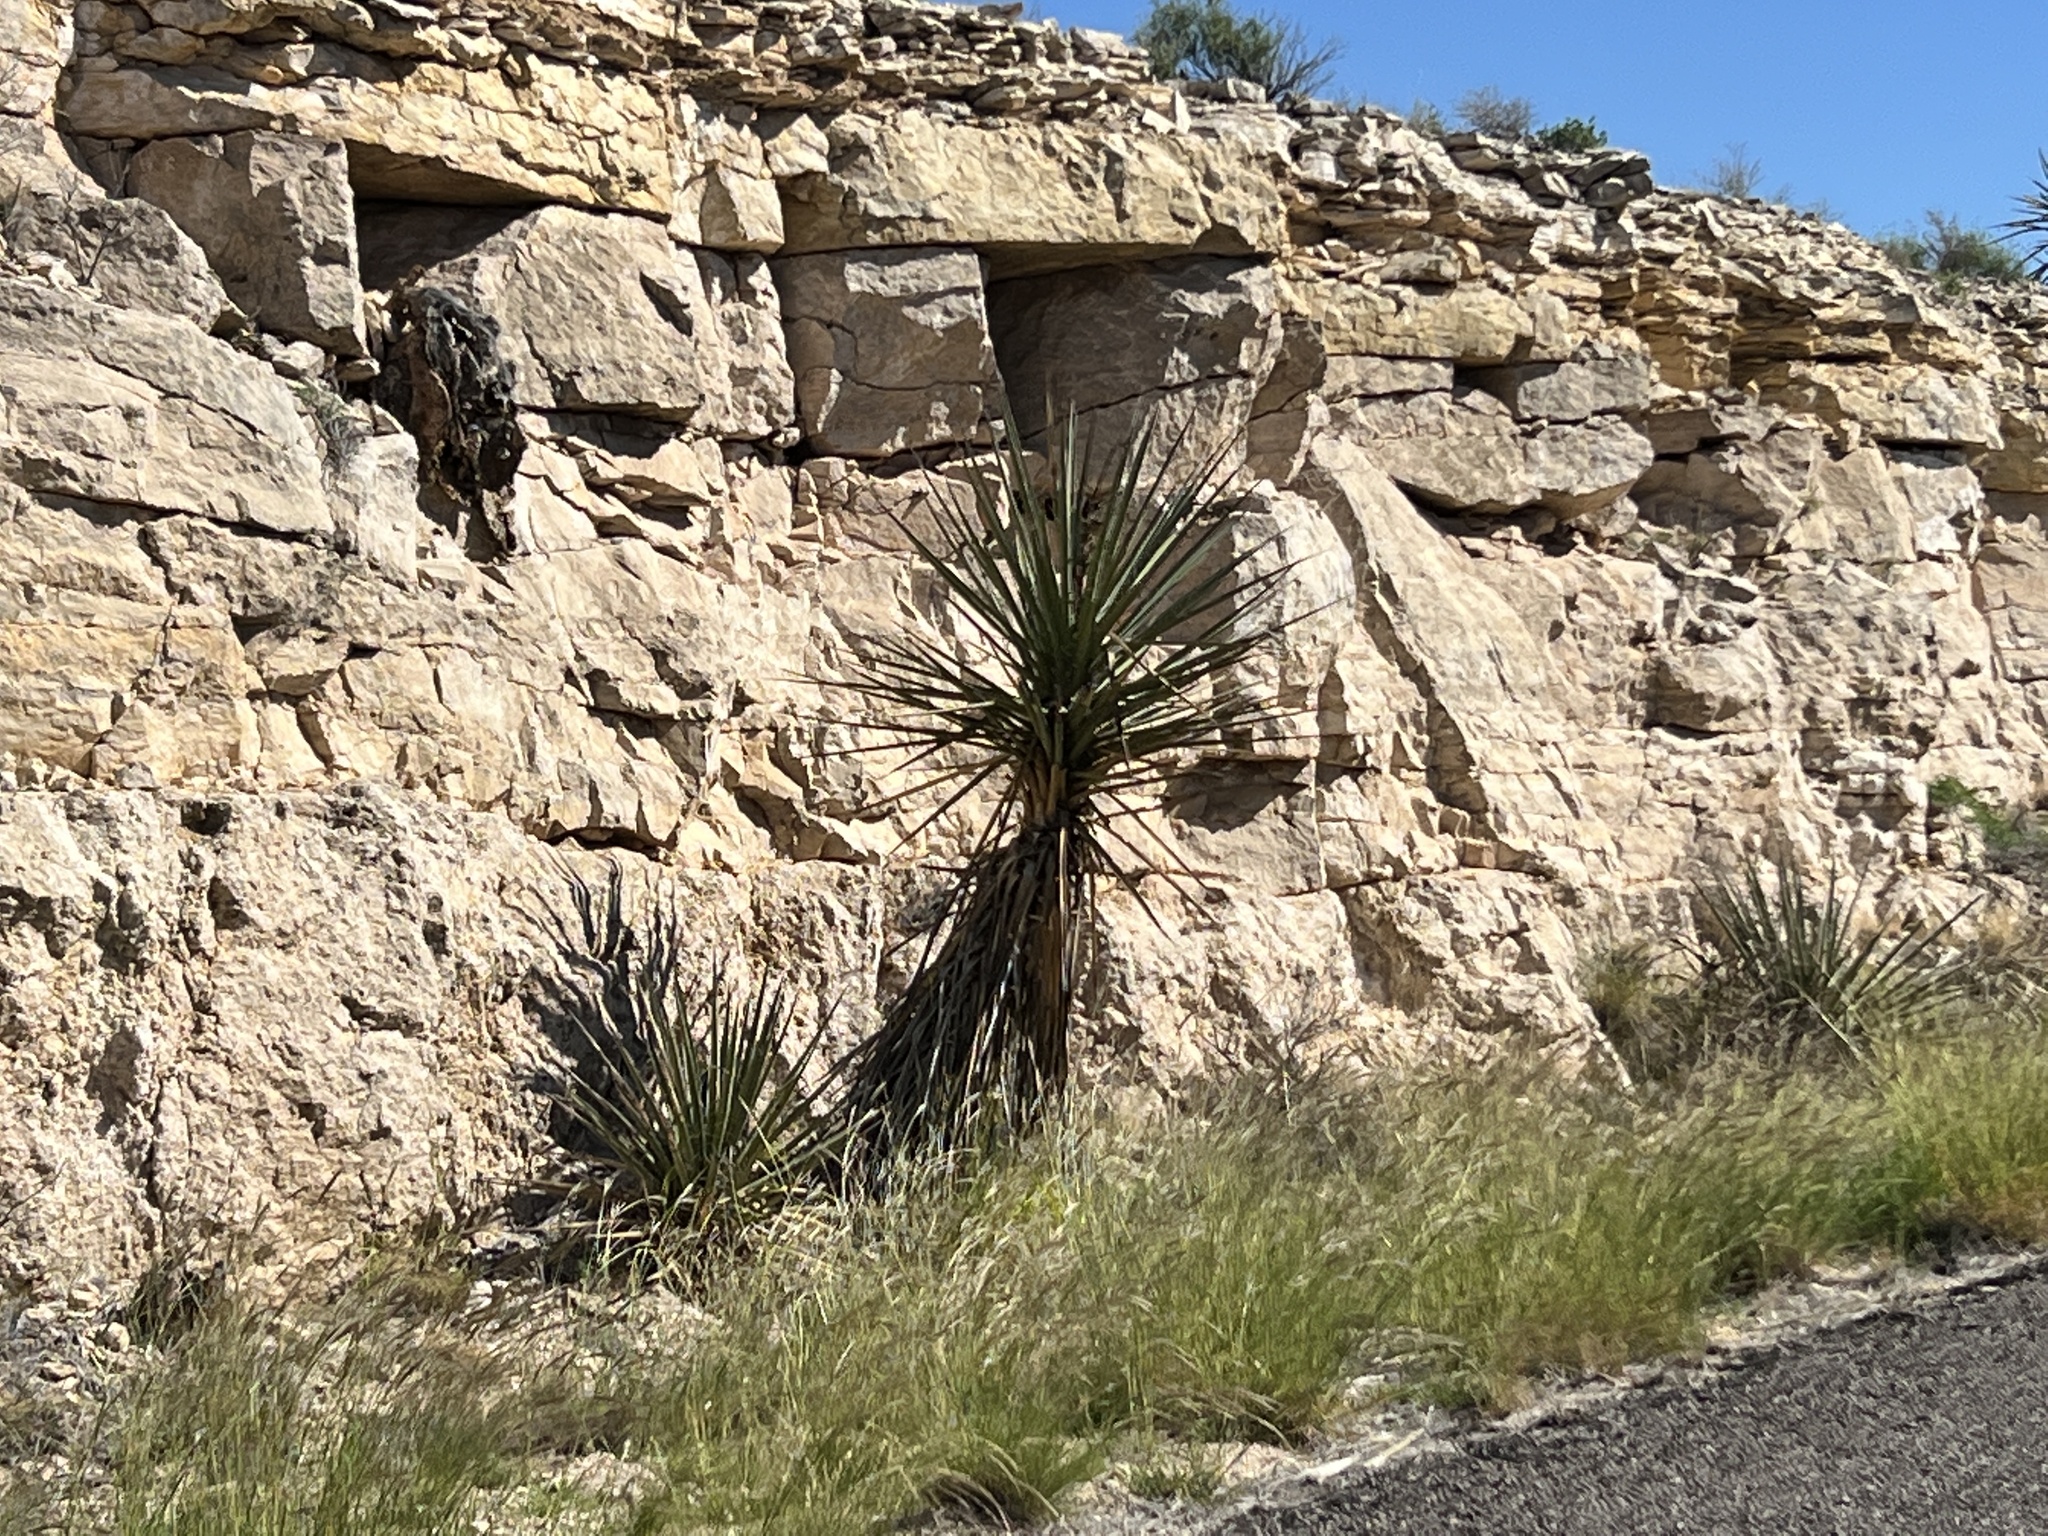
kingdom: Plantae
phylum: Tracheophyta
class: Liliopsida
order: Asparagales
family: Asparagaceae
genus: Yucca
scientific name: Yucca treculiana
